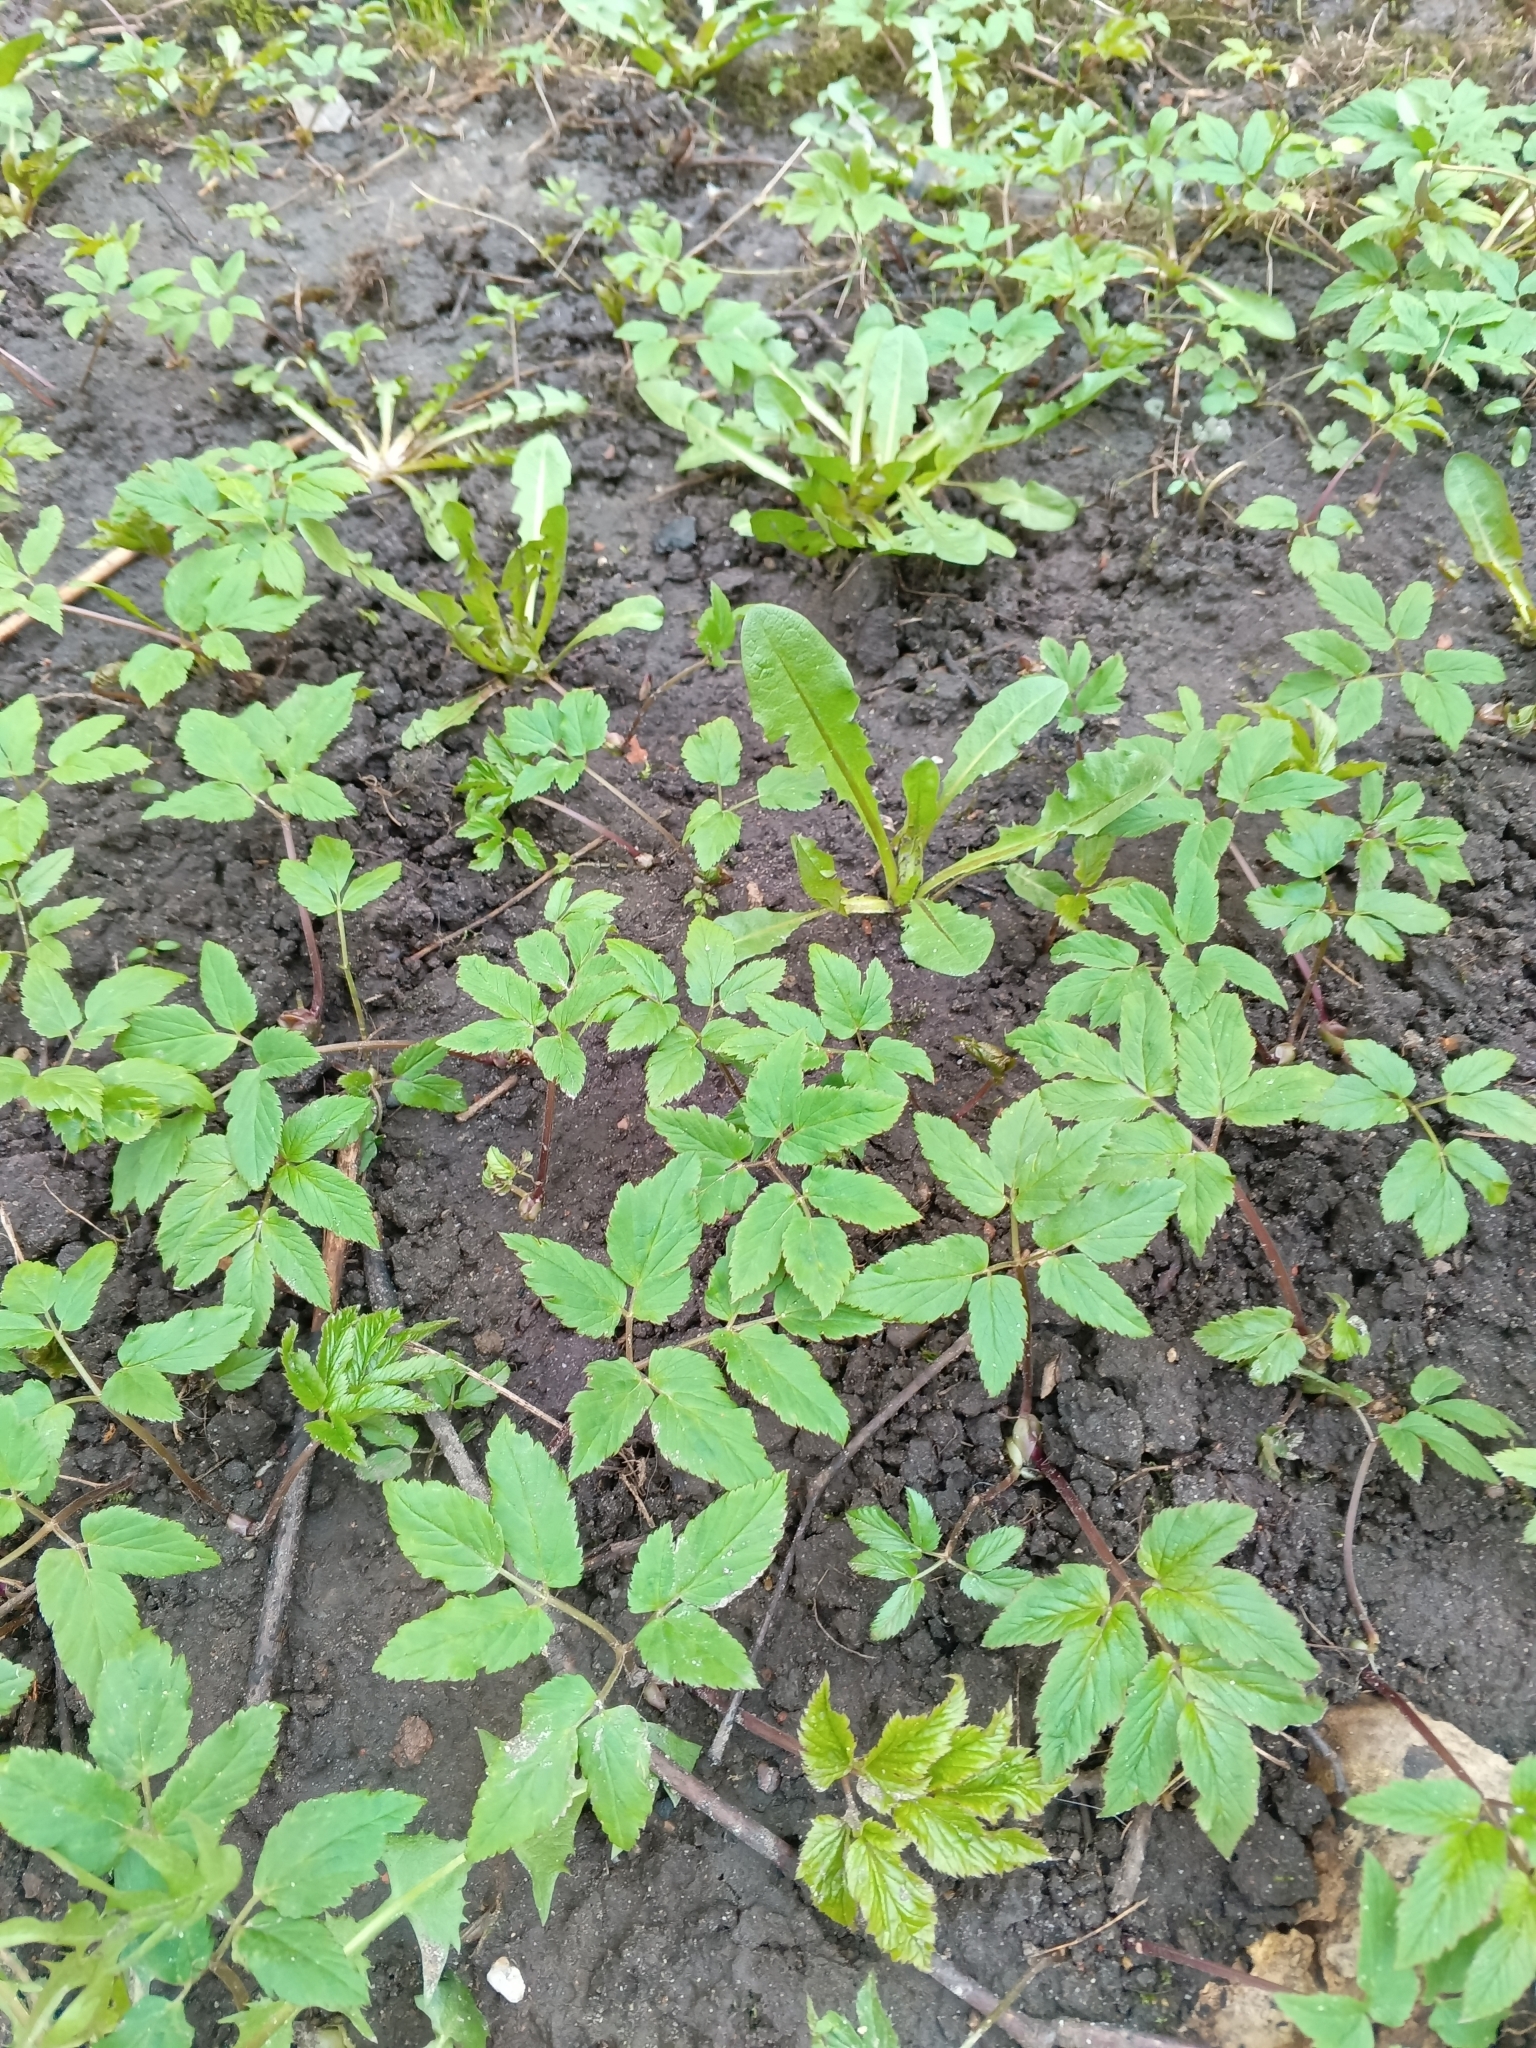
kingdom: Plantae
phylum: Tracheophyta
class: Magnoliopsida
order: Apiales
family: Apiaceae
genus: Aegopodium
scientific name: Aegopodium podagraria
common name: Ground-elder
